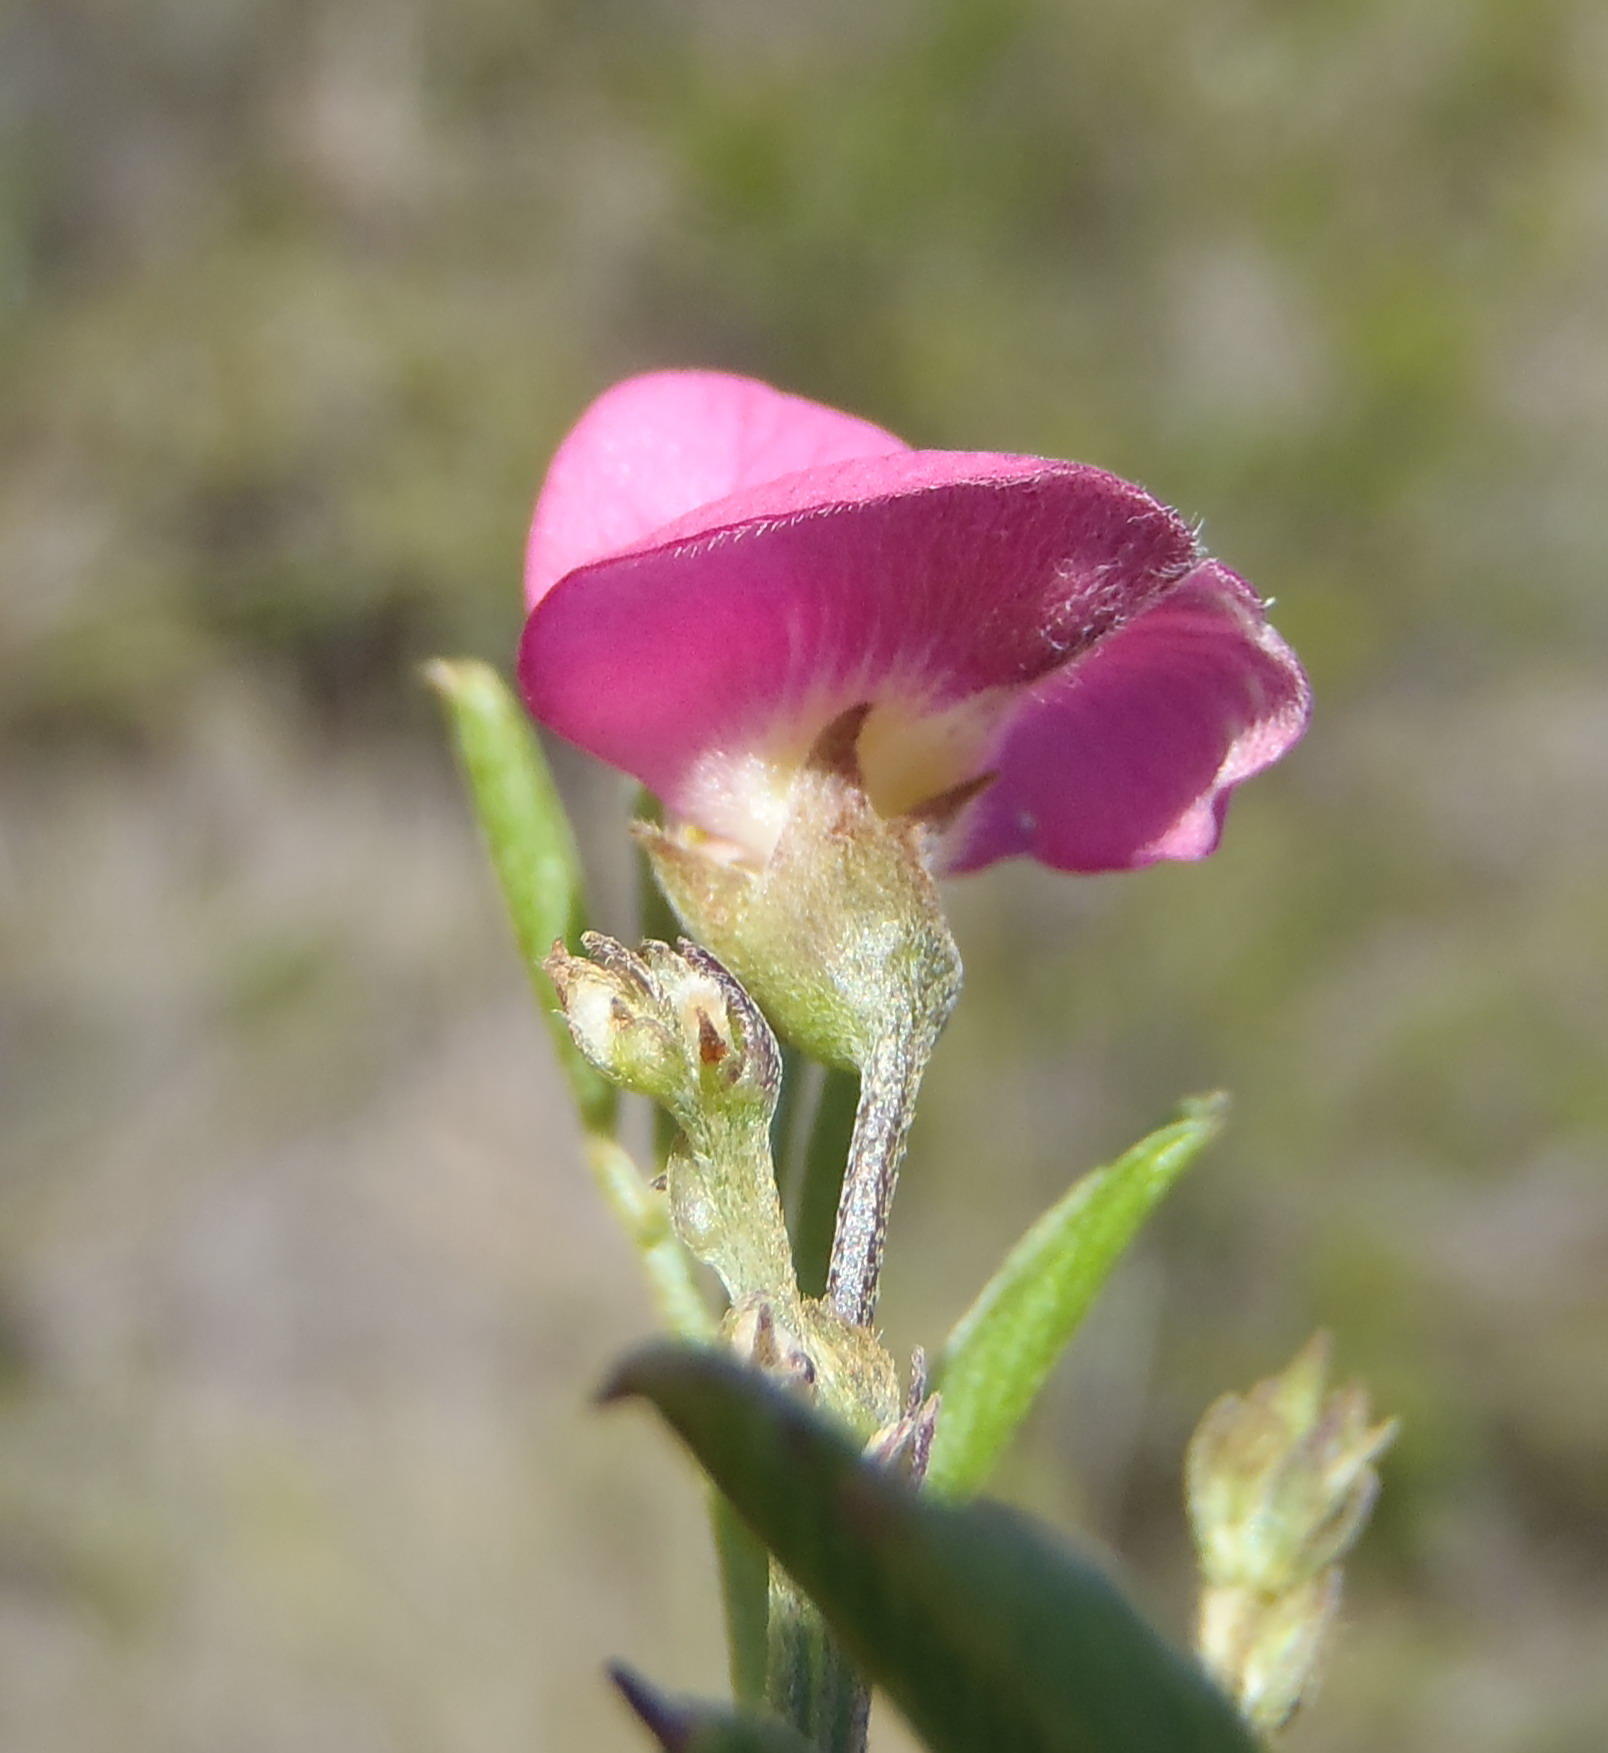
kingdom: Plantae
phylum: Tracheophyta
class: Magnoliopsida
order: Fabales
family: Fabaceae
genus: Tephrosia
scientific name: Tephrosia capensis
